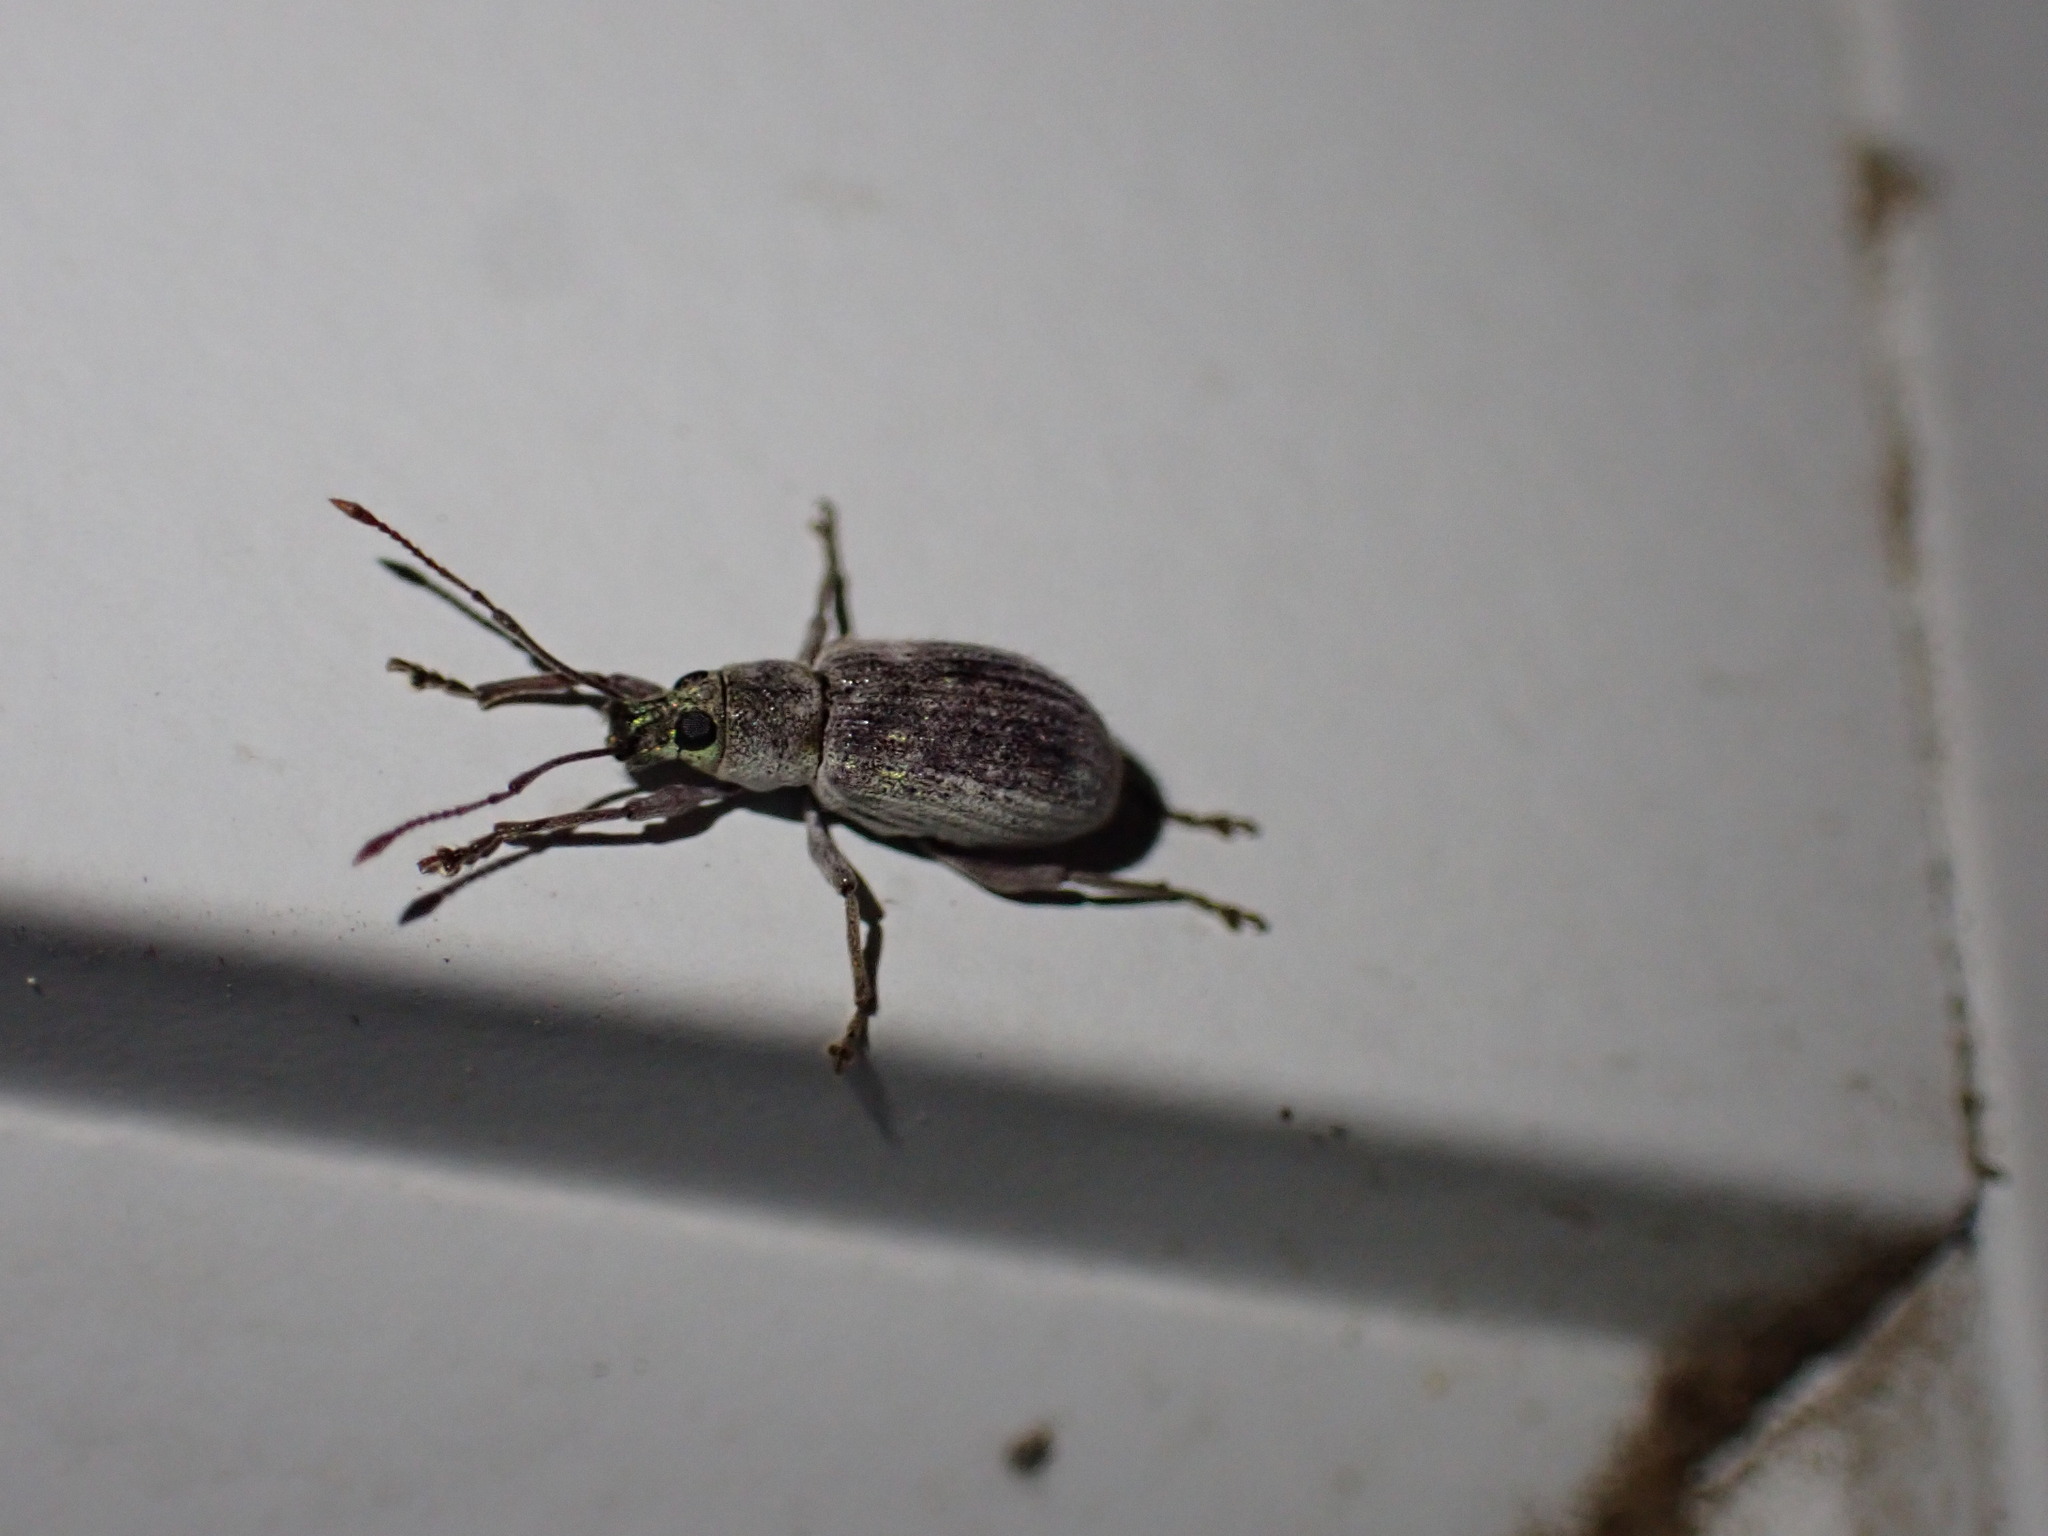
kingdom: Animalia
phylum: Arthropoda
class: Insecta
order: Coleoptera
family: Curculionidae
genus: Cyrtepistomus
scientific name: Cyrtepistomus castaneus
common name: Weevil
